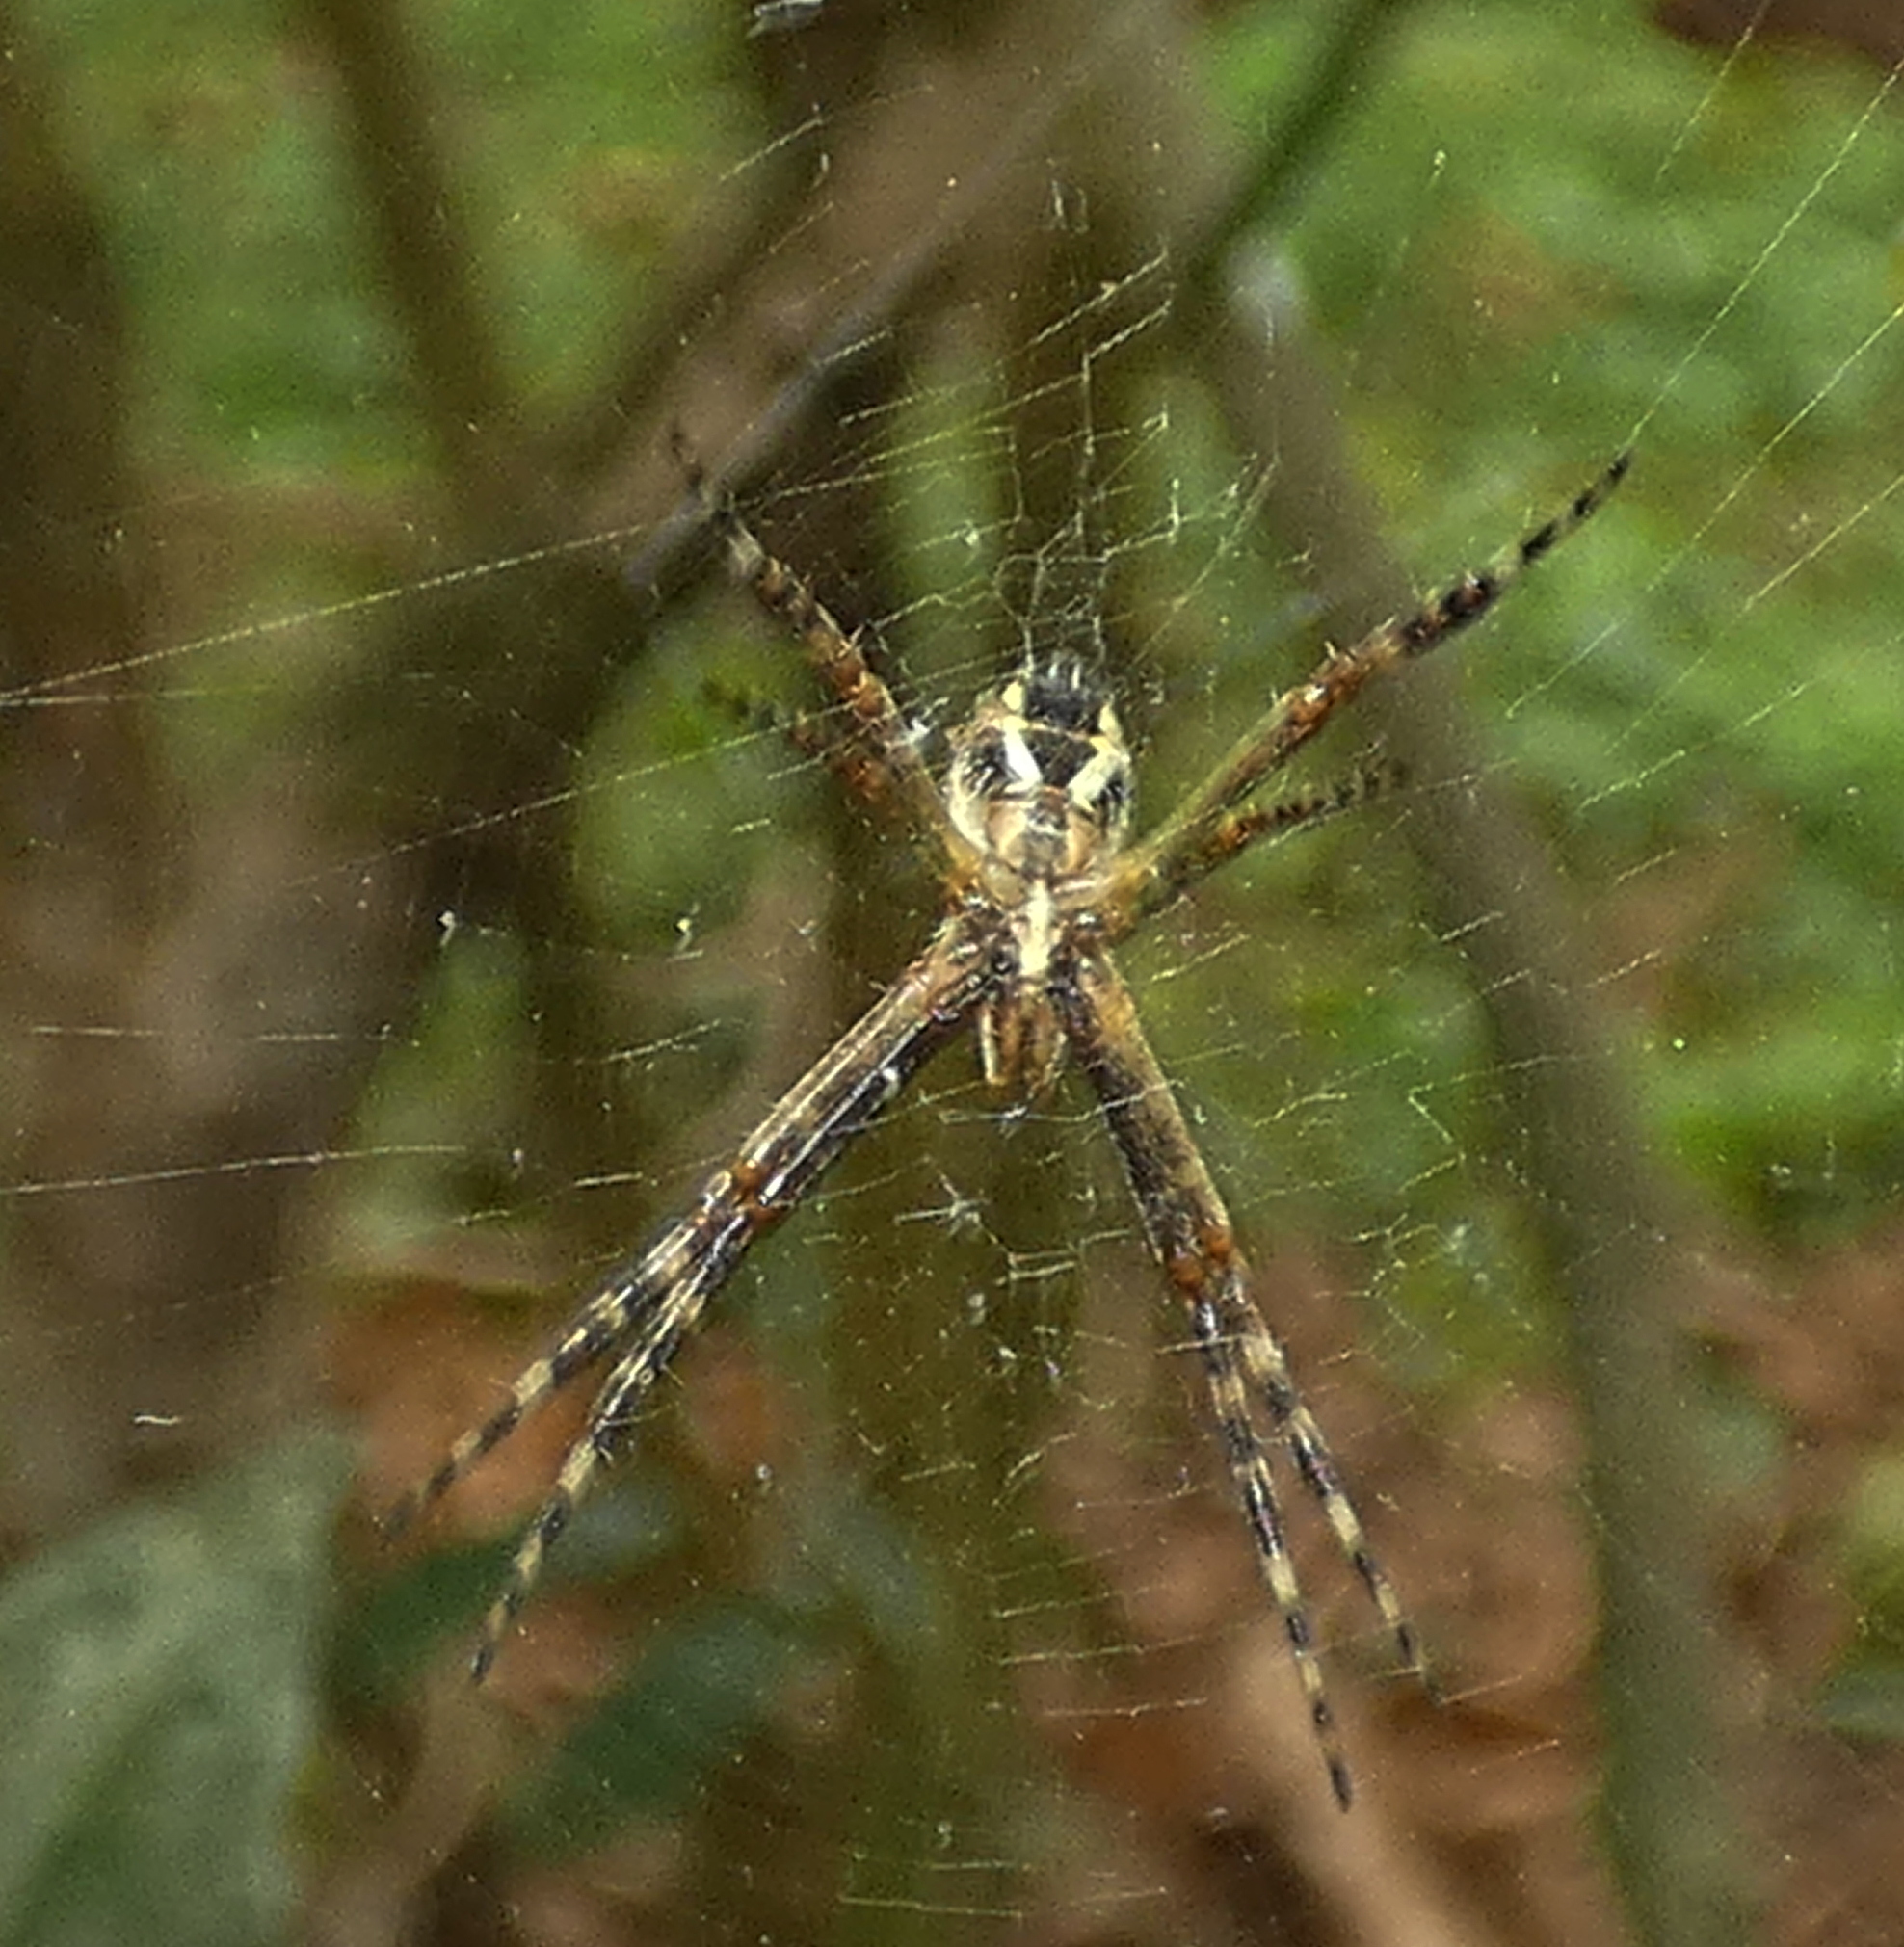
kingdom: Animalia
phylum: Arthropoda
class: Arachnida
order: Araneae
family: Araneidae
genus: Argiope
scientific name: Argiope argentata
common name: Orb weavers
